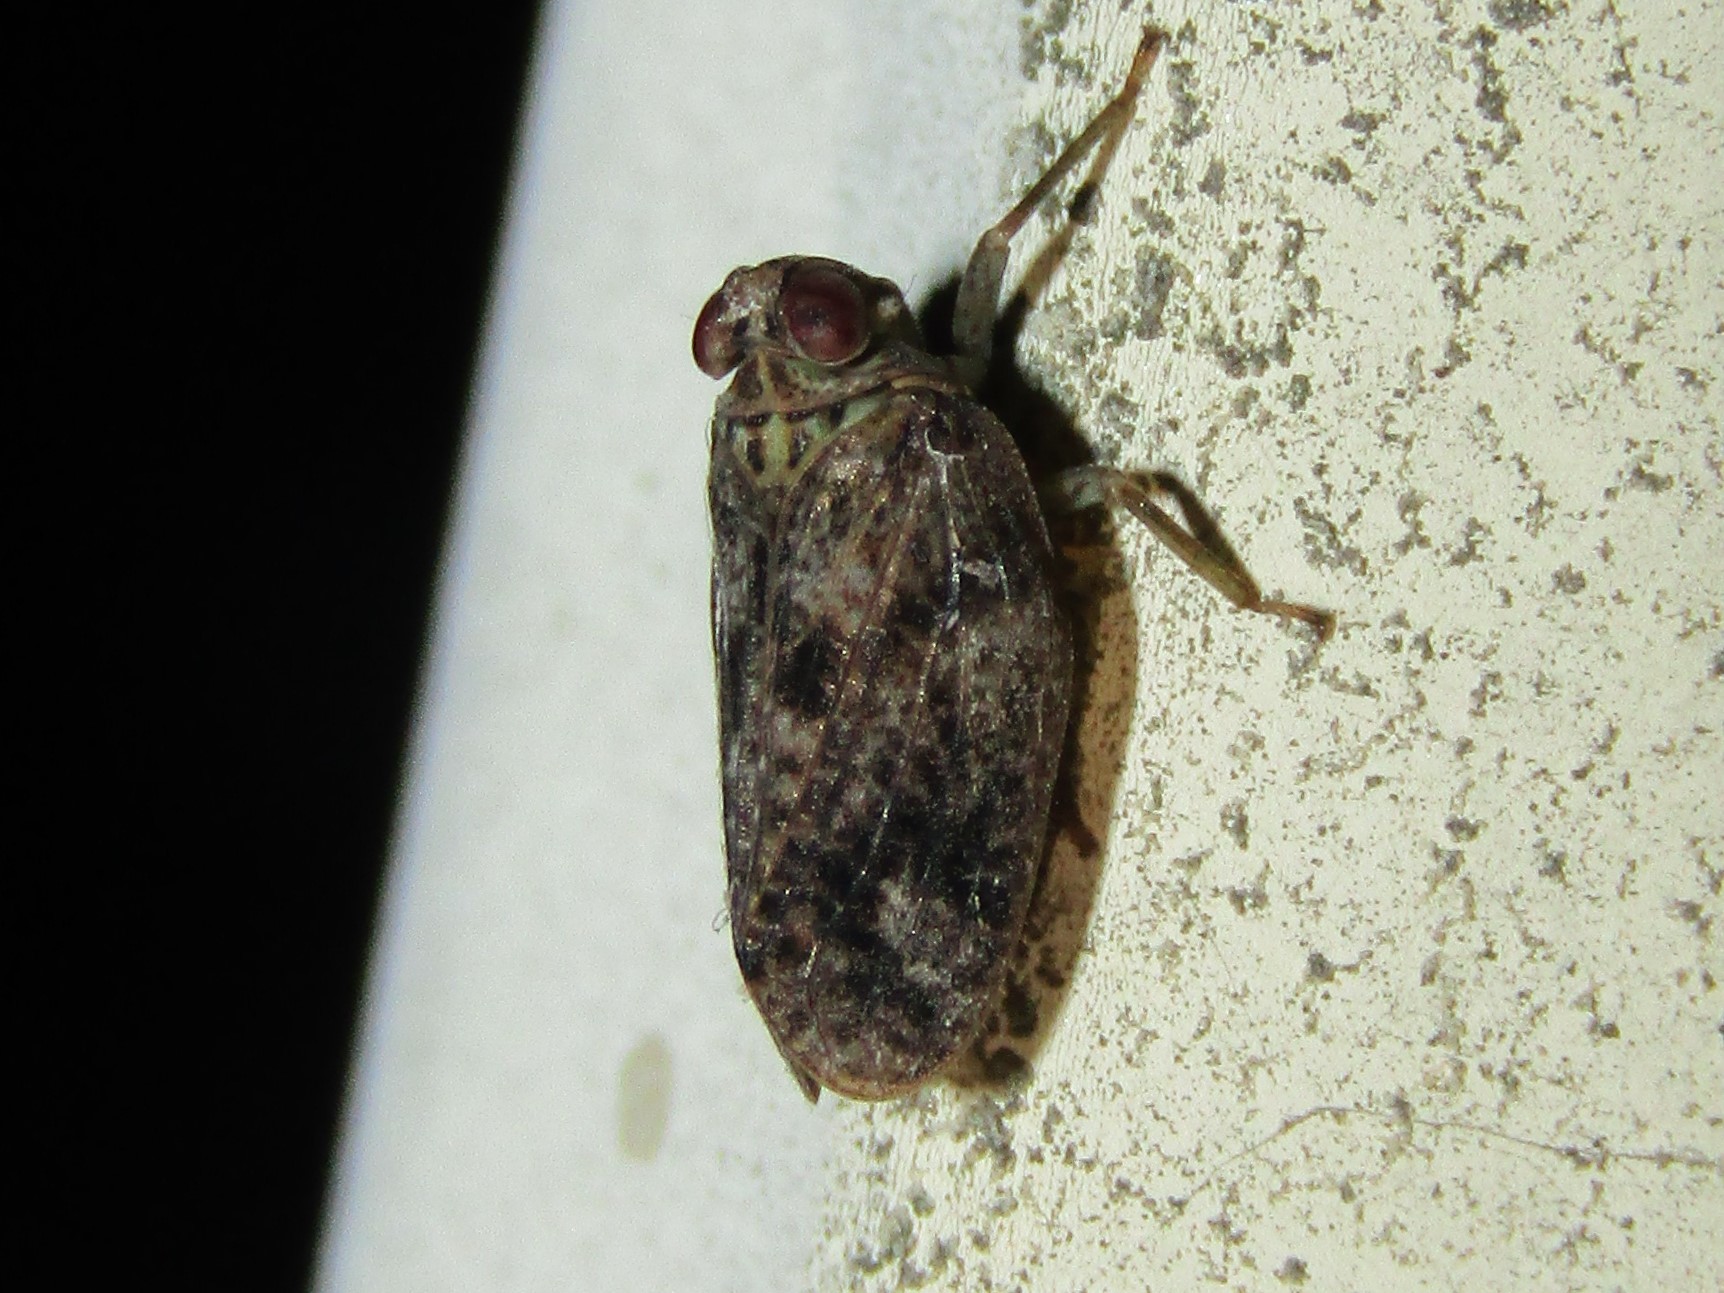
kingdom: Animalia
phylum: Arthropoda
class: Insecta
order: Hemiptera
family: Issidae
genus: Thionia
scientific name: Thionia bullata
